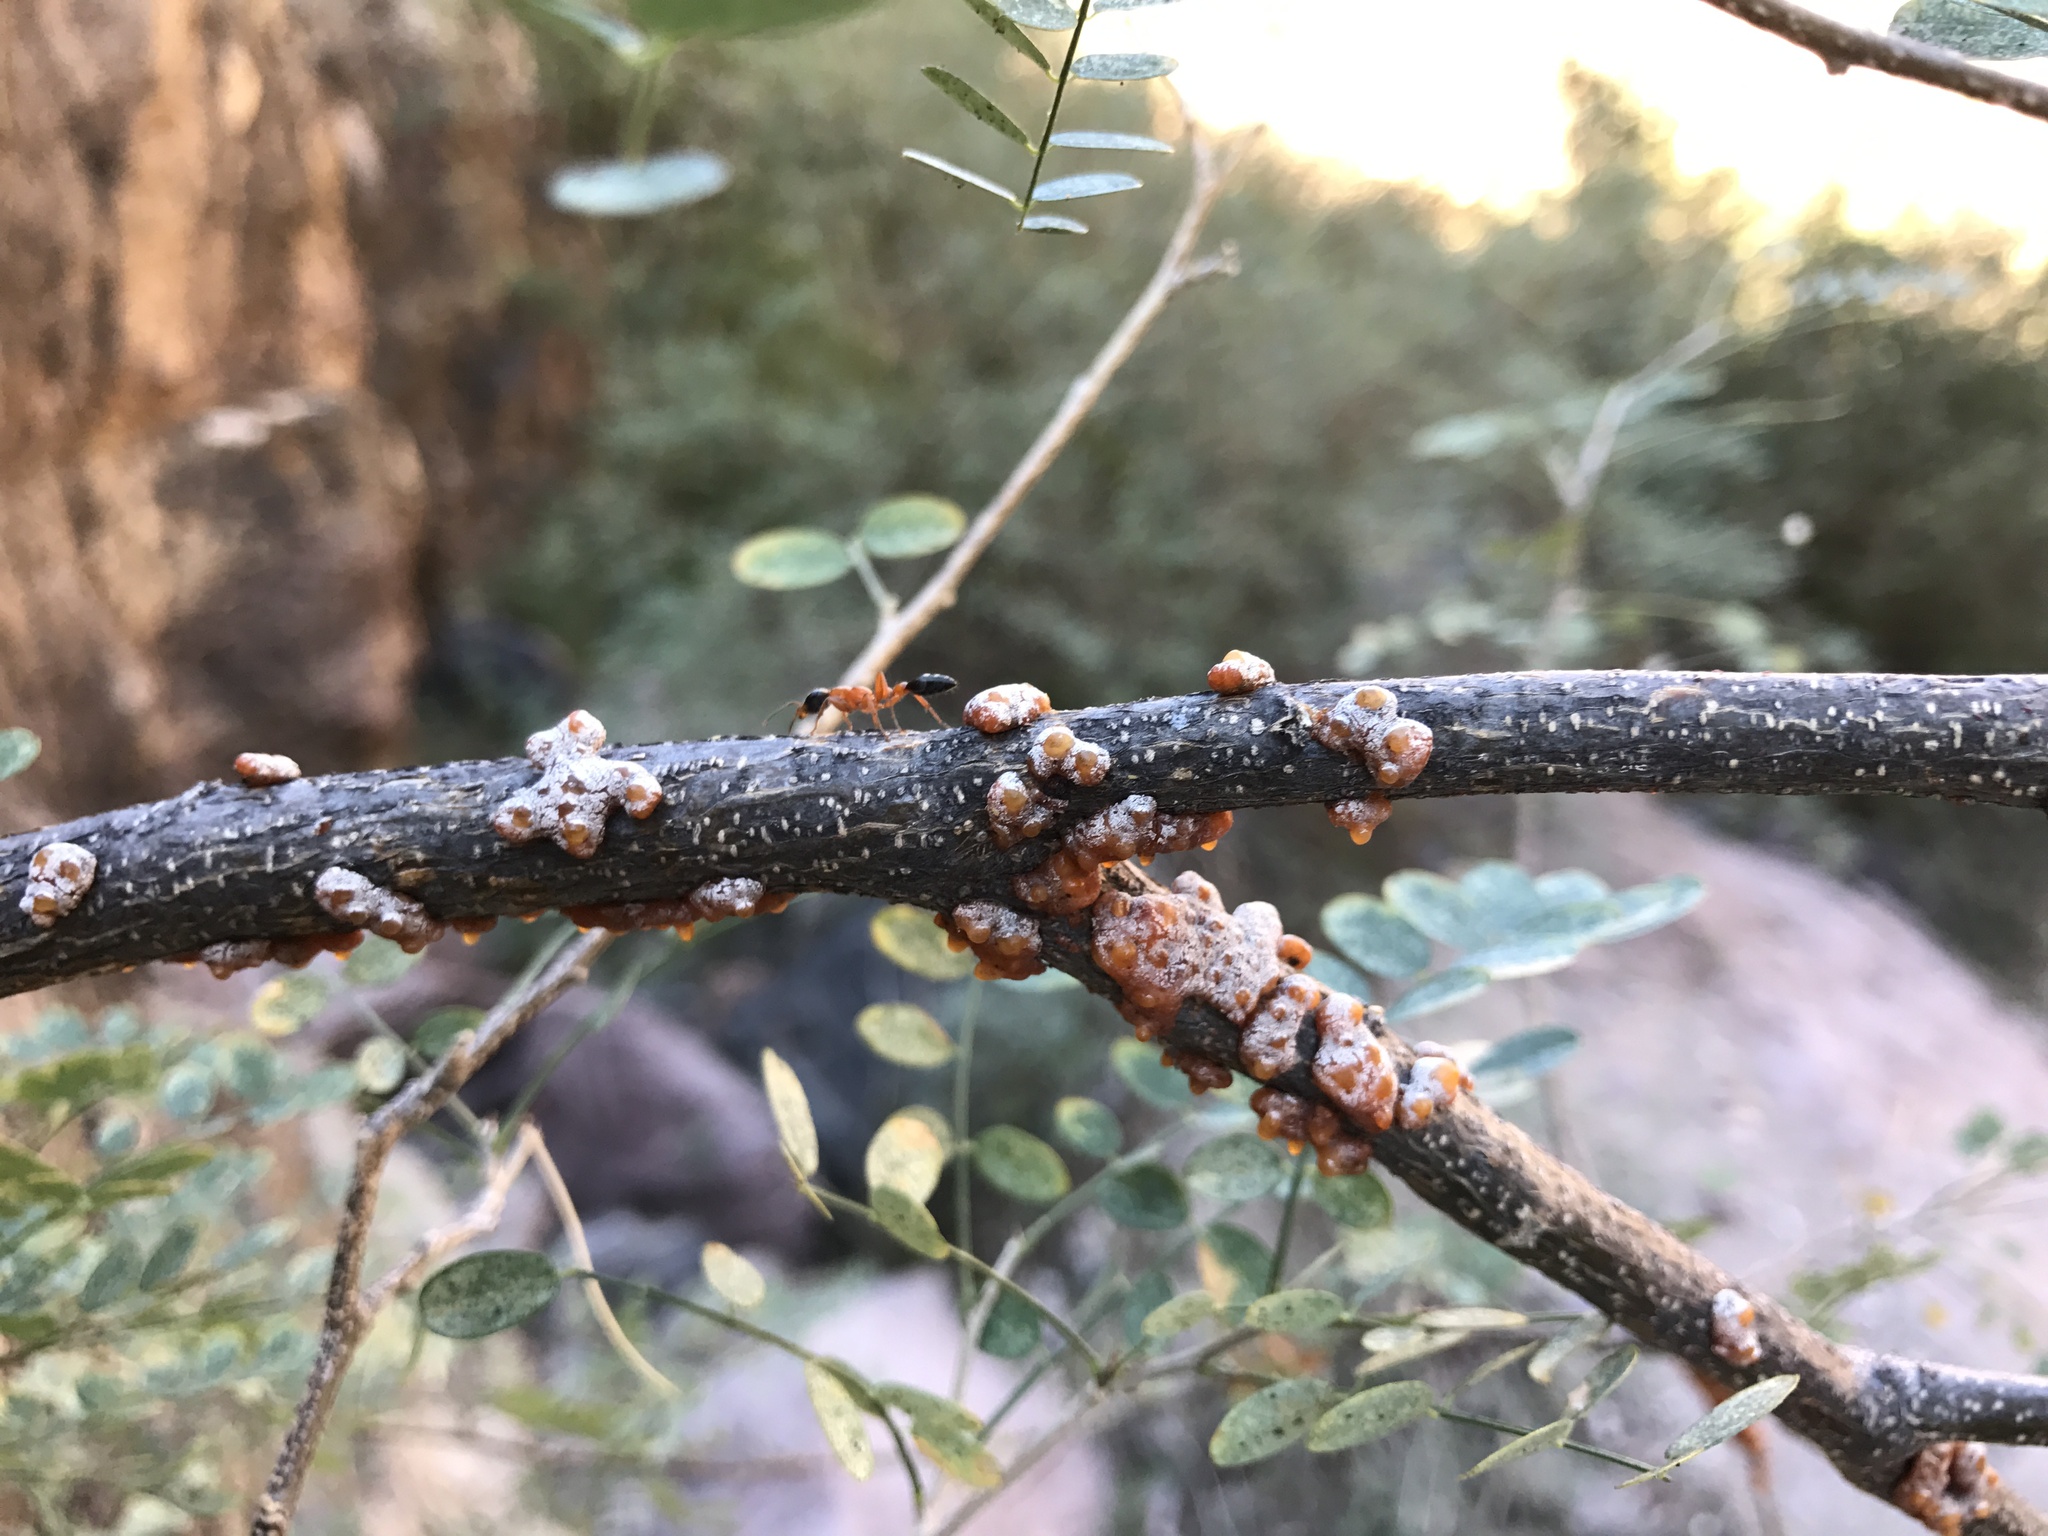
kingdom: Animalia
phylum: Arthropoda
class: Insecta
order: Hemiptera
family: Kerriidae
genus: Tachardiella
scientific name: Tachardiella fulgens
